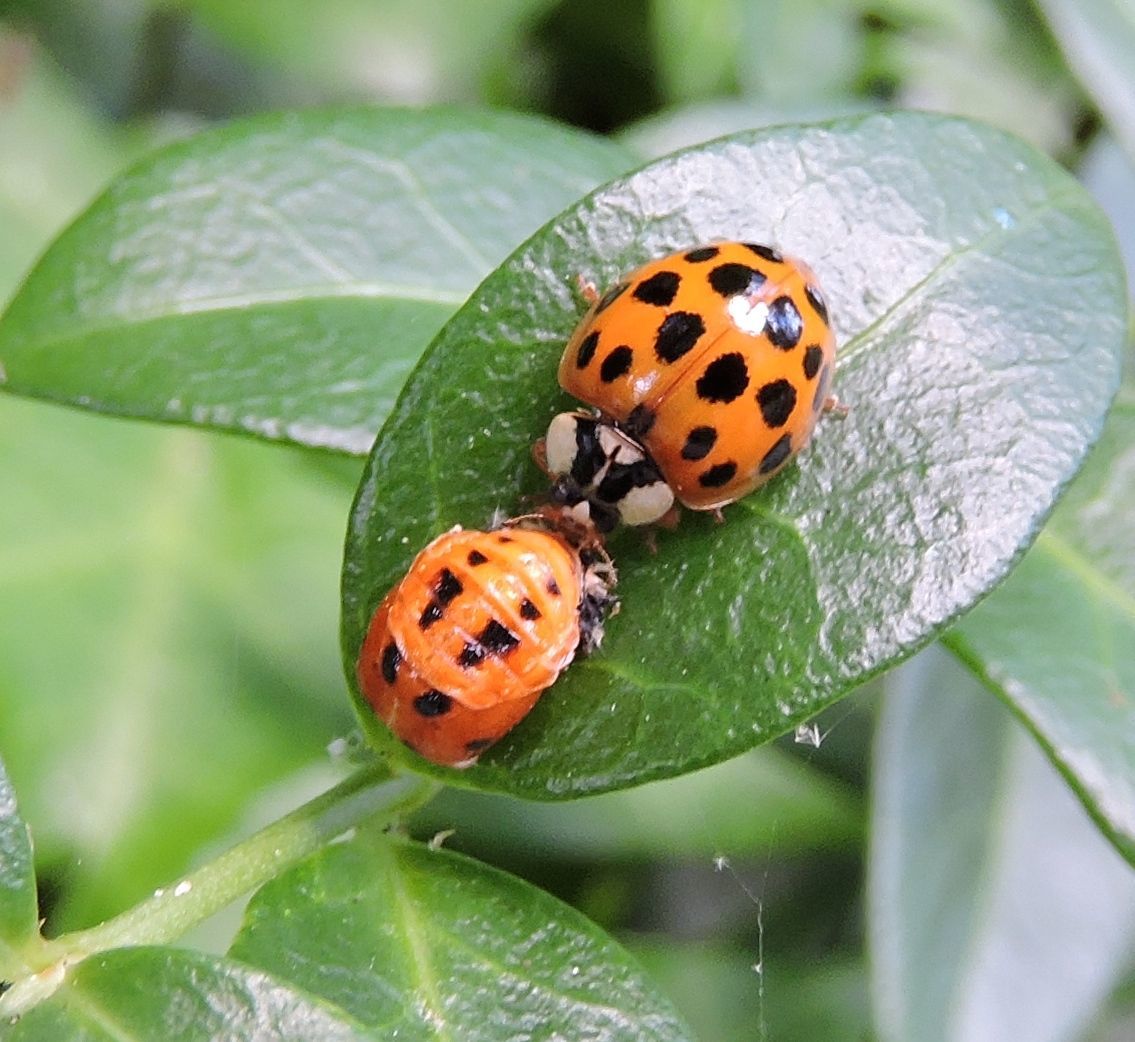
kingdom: Animalia
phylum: Arthropoda
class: Insecta
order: Coleoptera
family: Coccinellidae
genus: Harmonia
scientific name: Harmonia axyridis
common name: Harlequin ladybird
